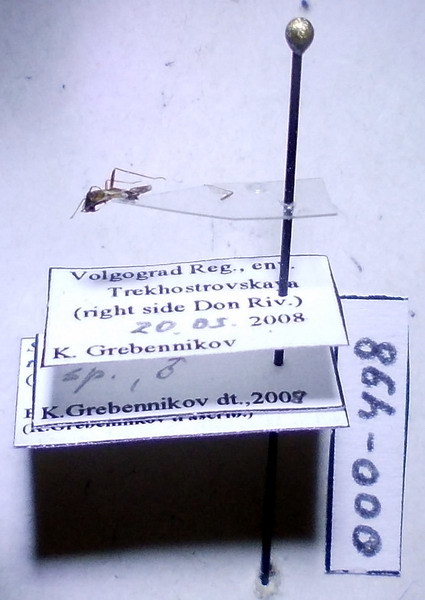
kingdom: Animalia
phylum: Arthropoda
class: Insecta
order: Hemiptera
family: Miridae
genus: Systellonotus
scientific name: Systellonotus triguttatus
